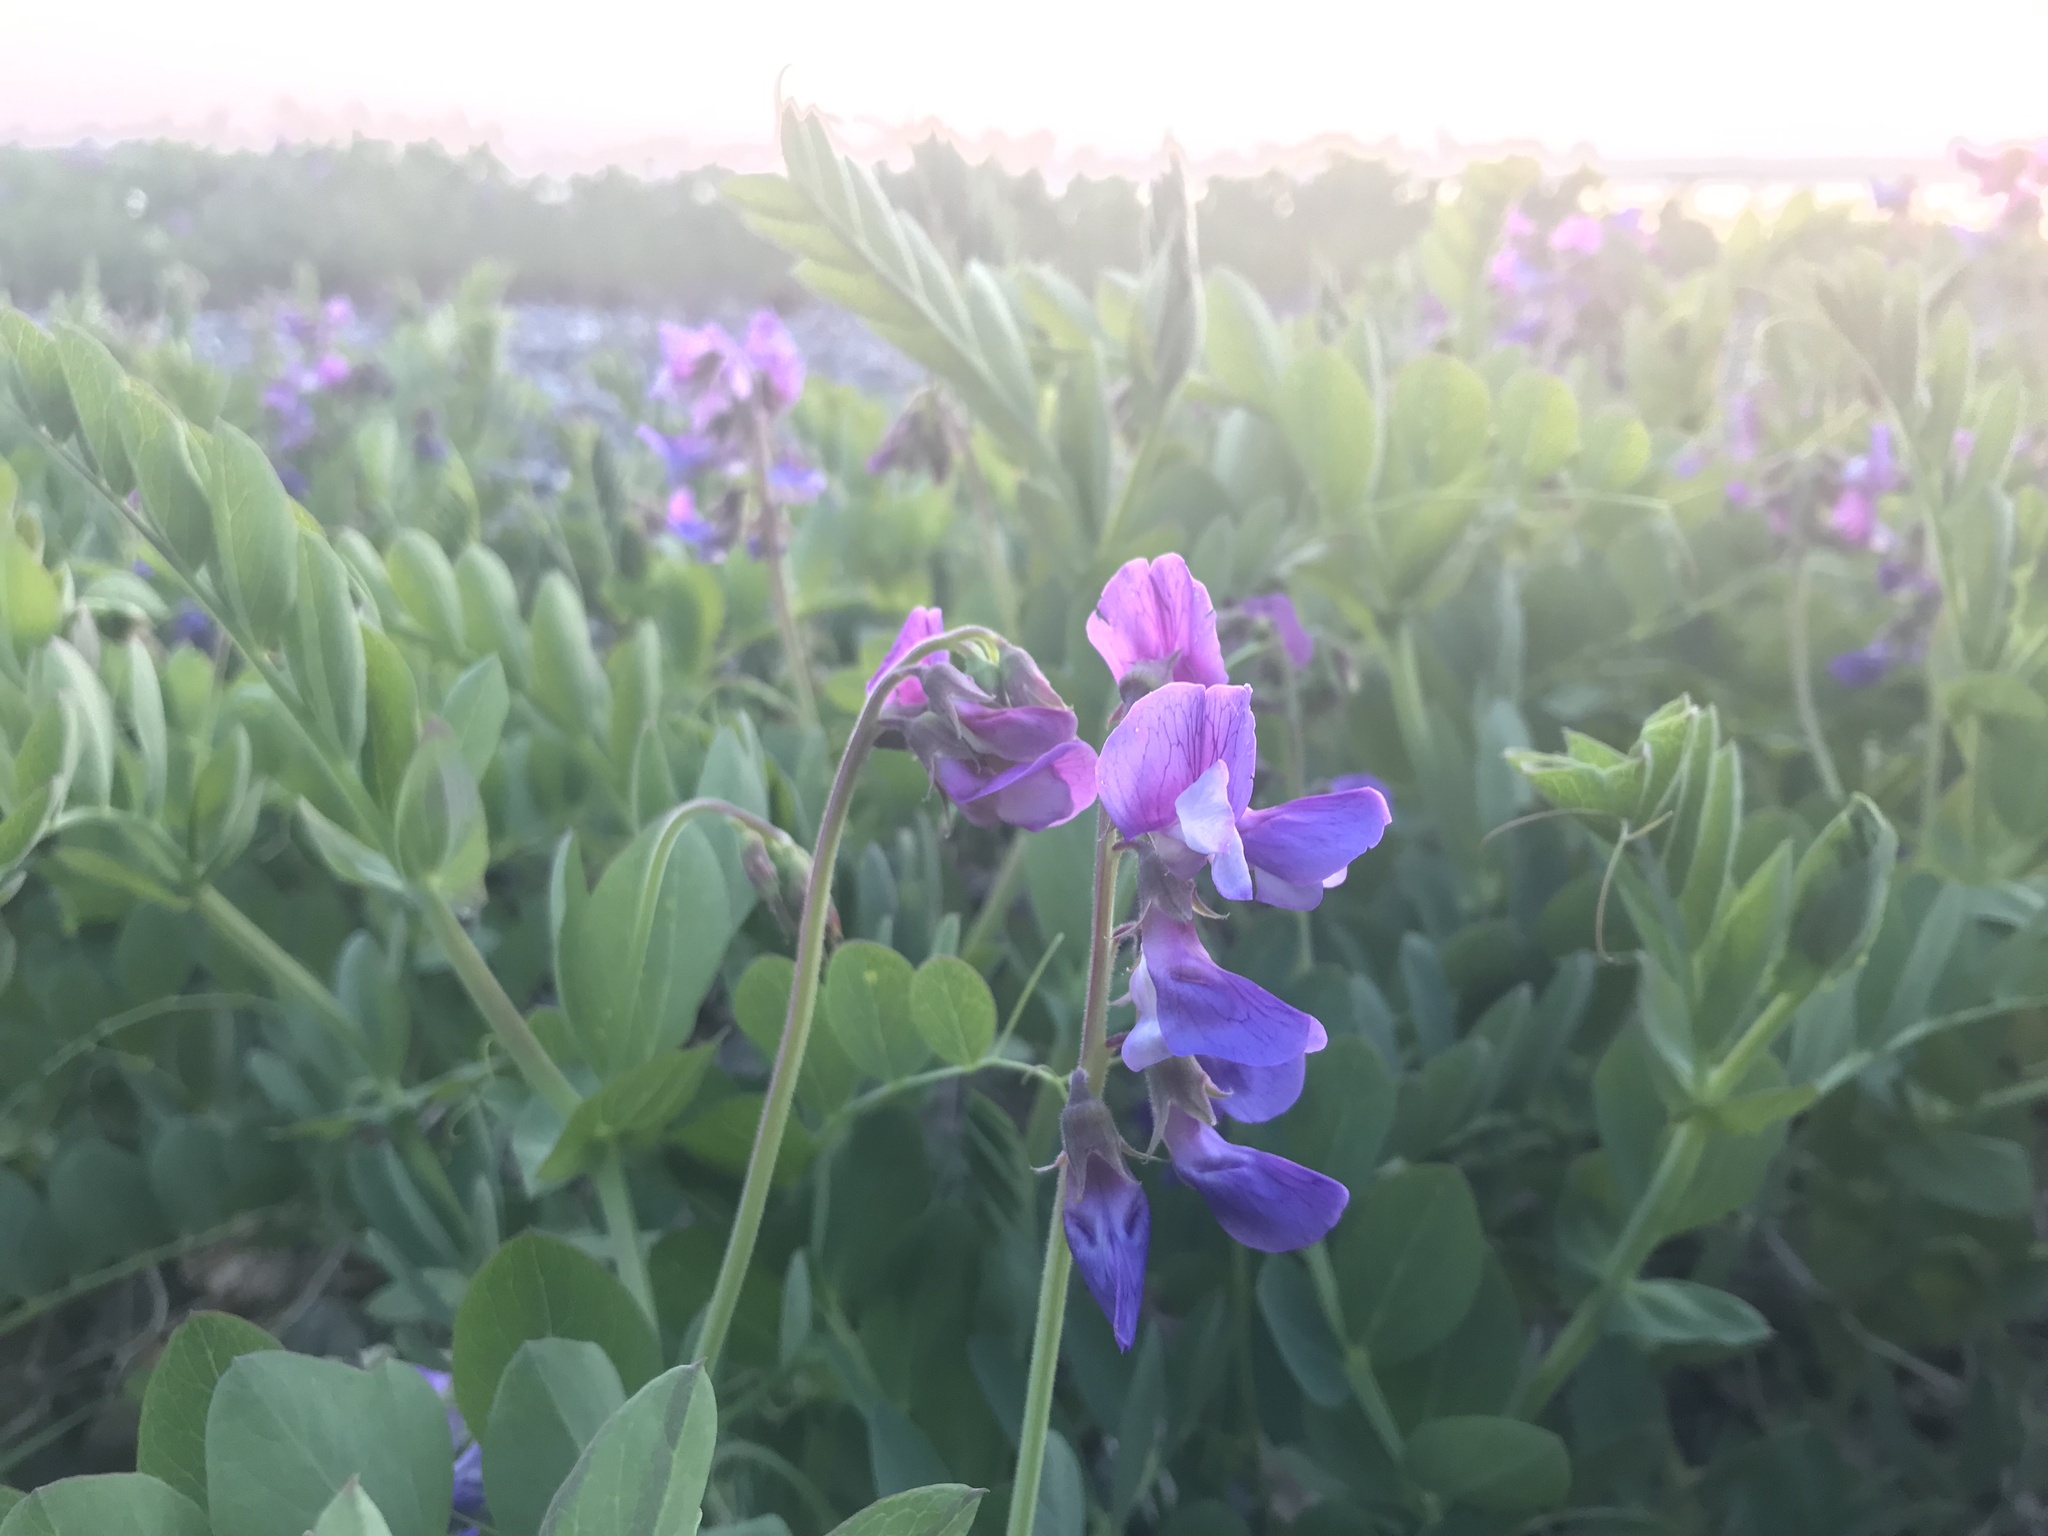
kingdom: Plantae
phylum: Tracheophyta
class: Magnoliopsida
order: Fabales
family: Fabaceae
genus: Lathyrus
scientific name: Lathyrus japonicus
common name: Sea pea
